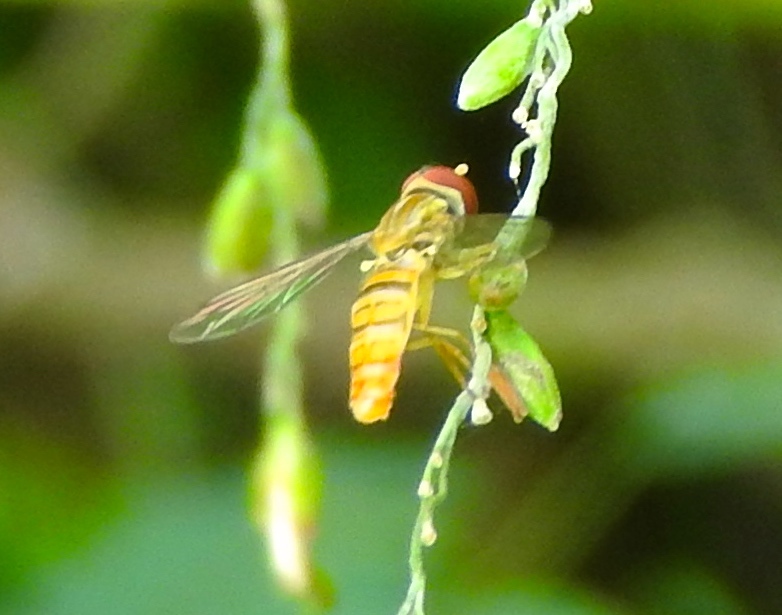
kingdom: Animalia
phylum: Arthropoda
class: Insecta
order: Diptera
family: Syrphidae
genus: Toxomerus
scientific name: Toxomerus politus
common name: Maize calligrapher
